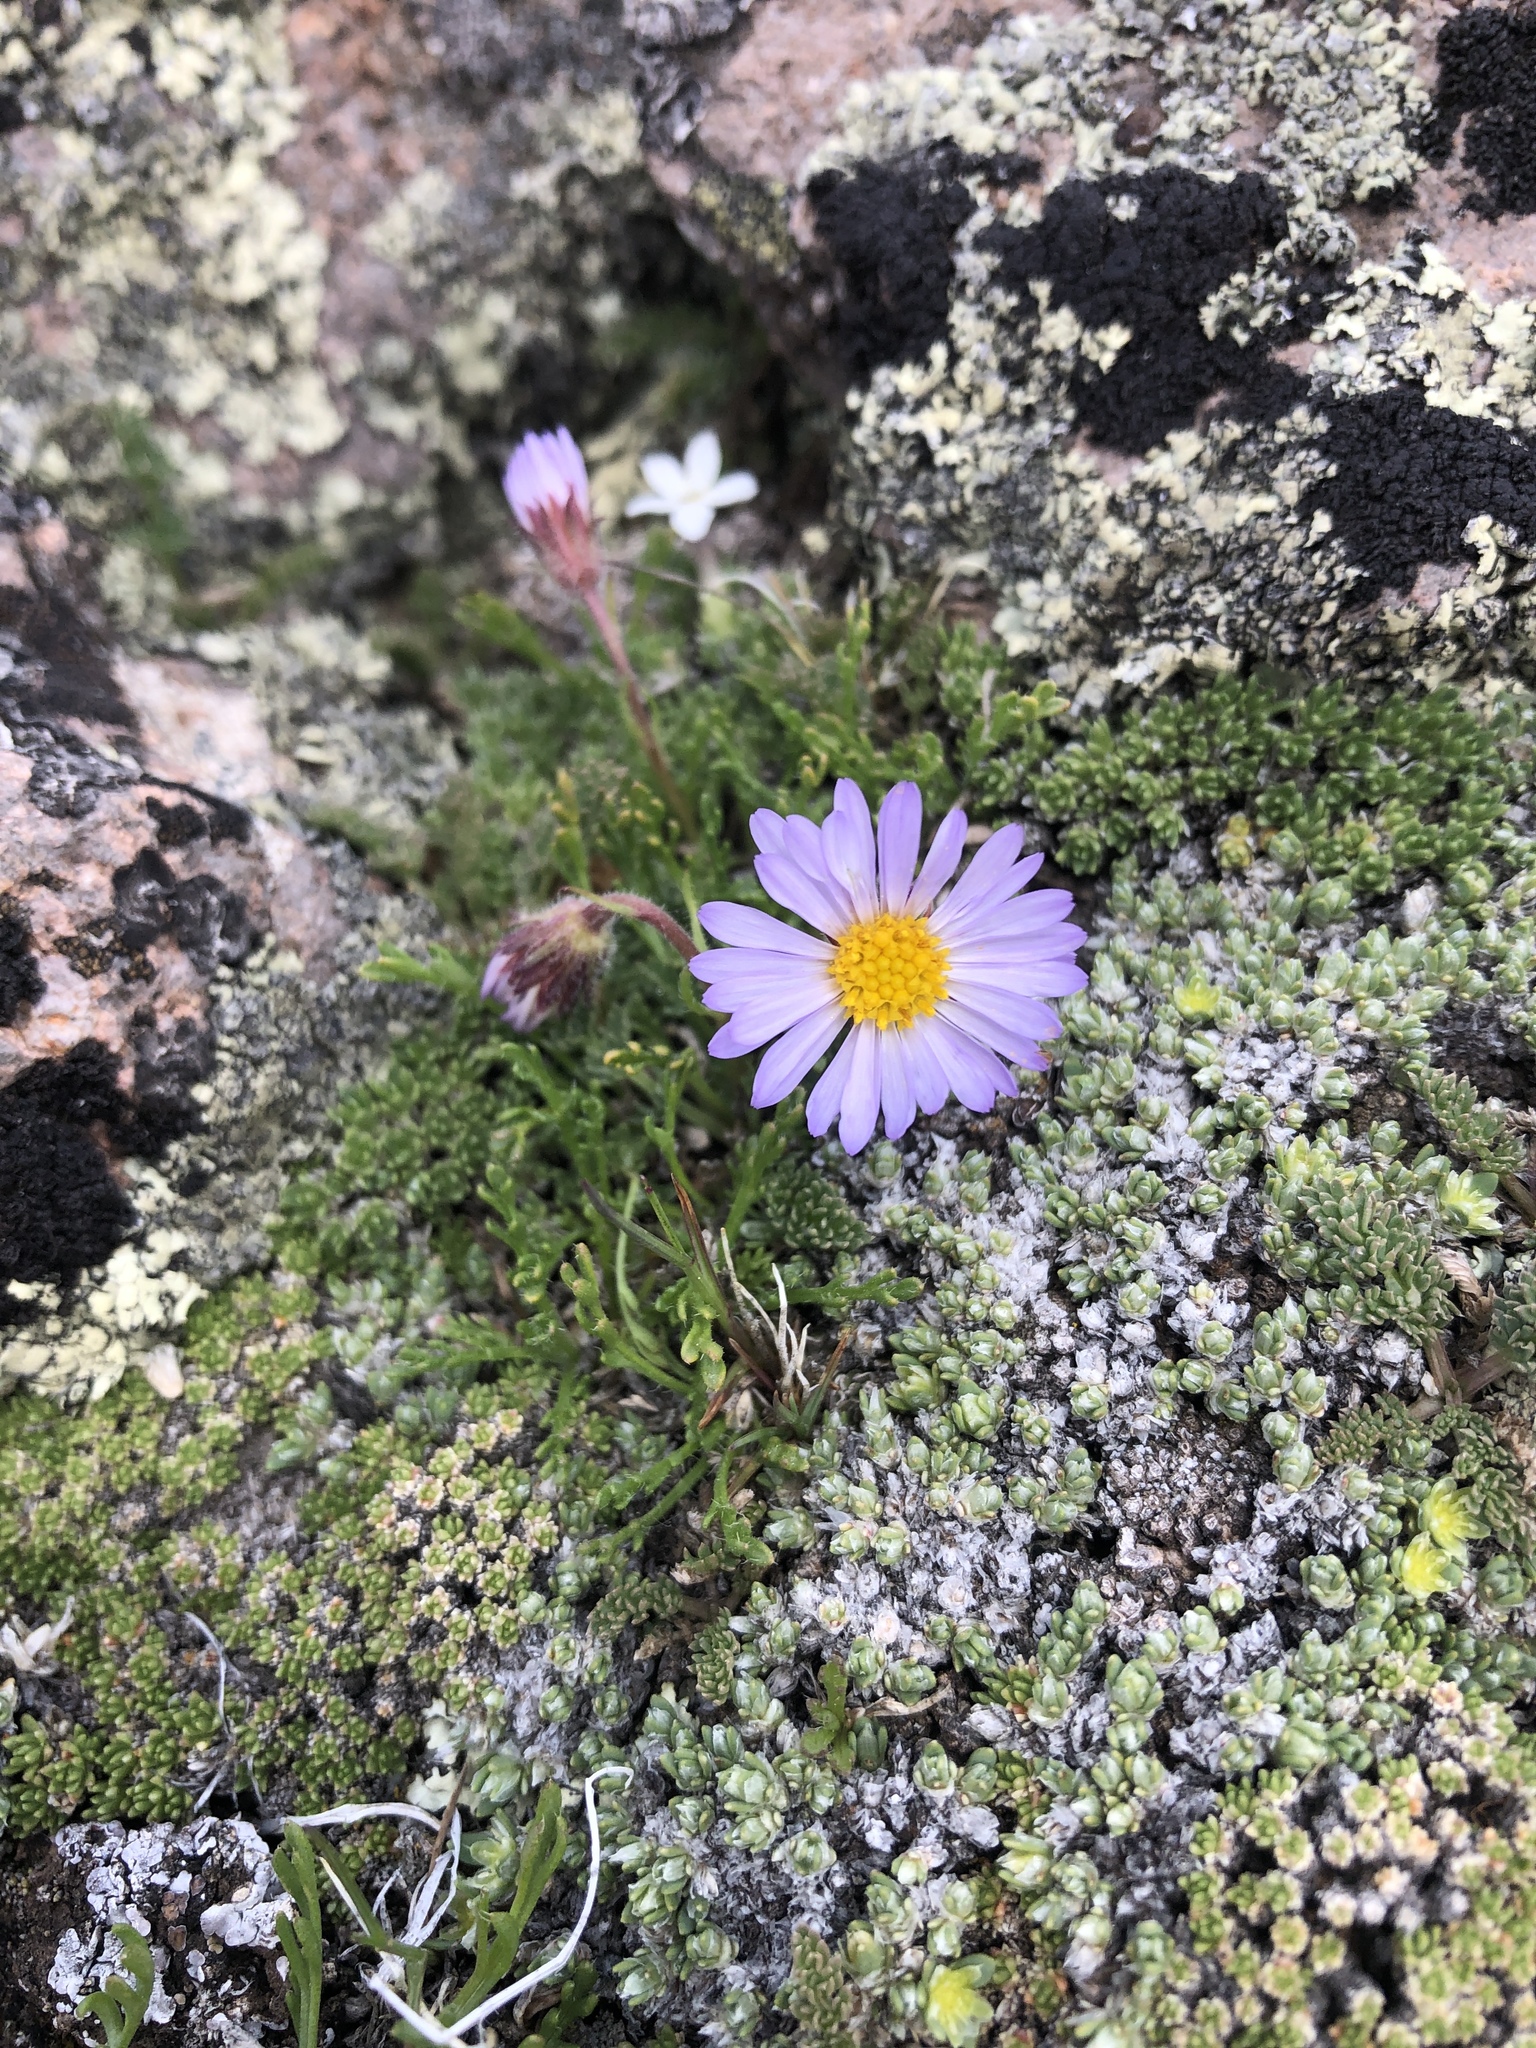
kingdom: Plantae
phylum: Tracheophyta
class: Magnoliopsida
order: Asterales
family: Asteraceae
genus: Erigeron
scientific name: Erigeron pinnatisectus
